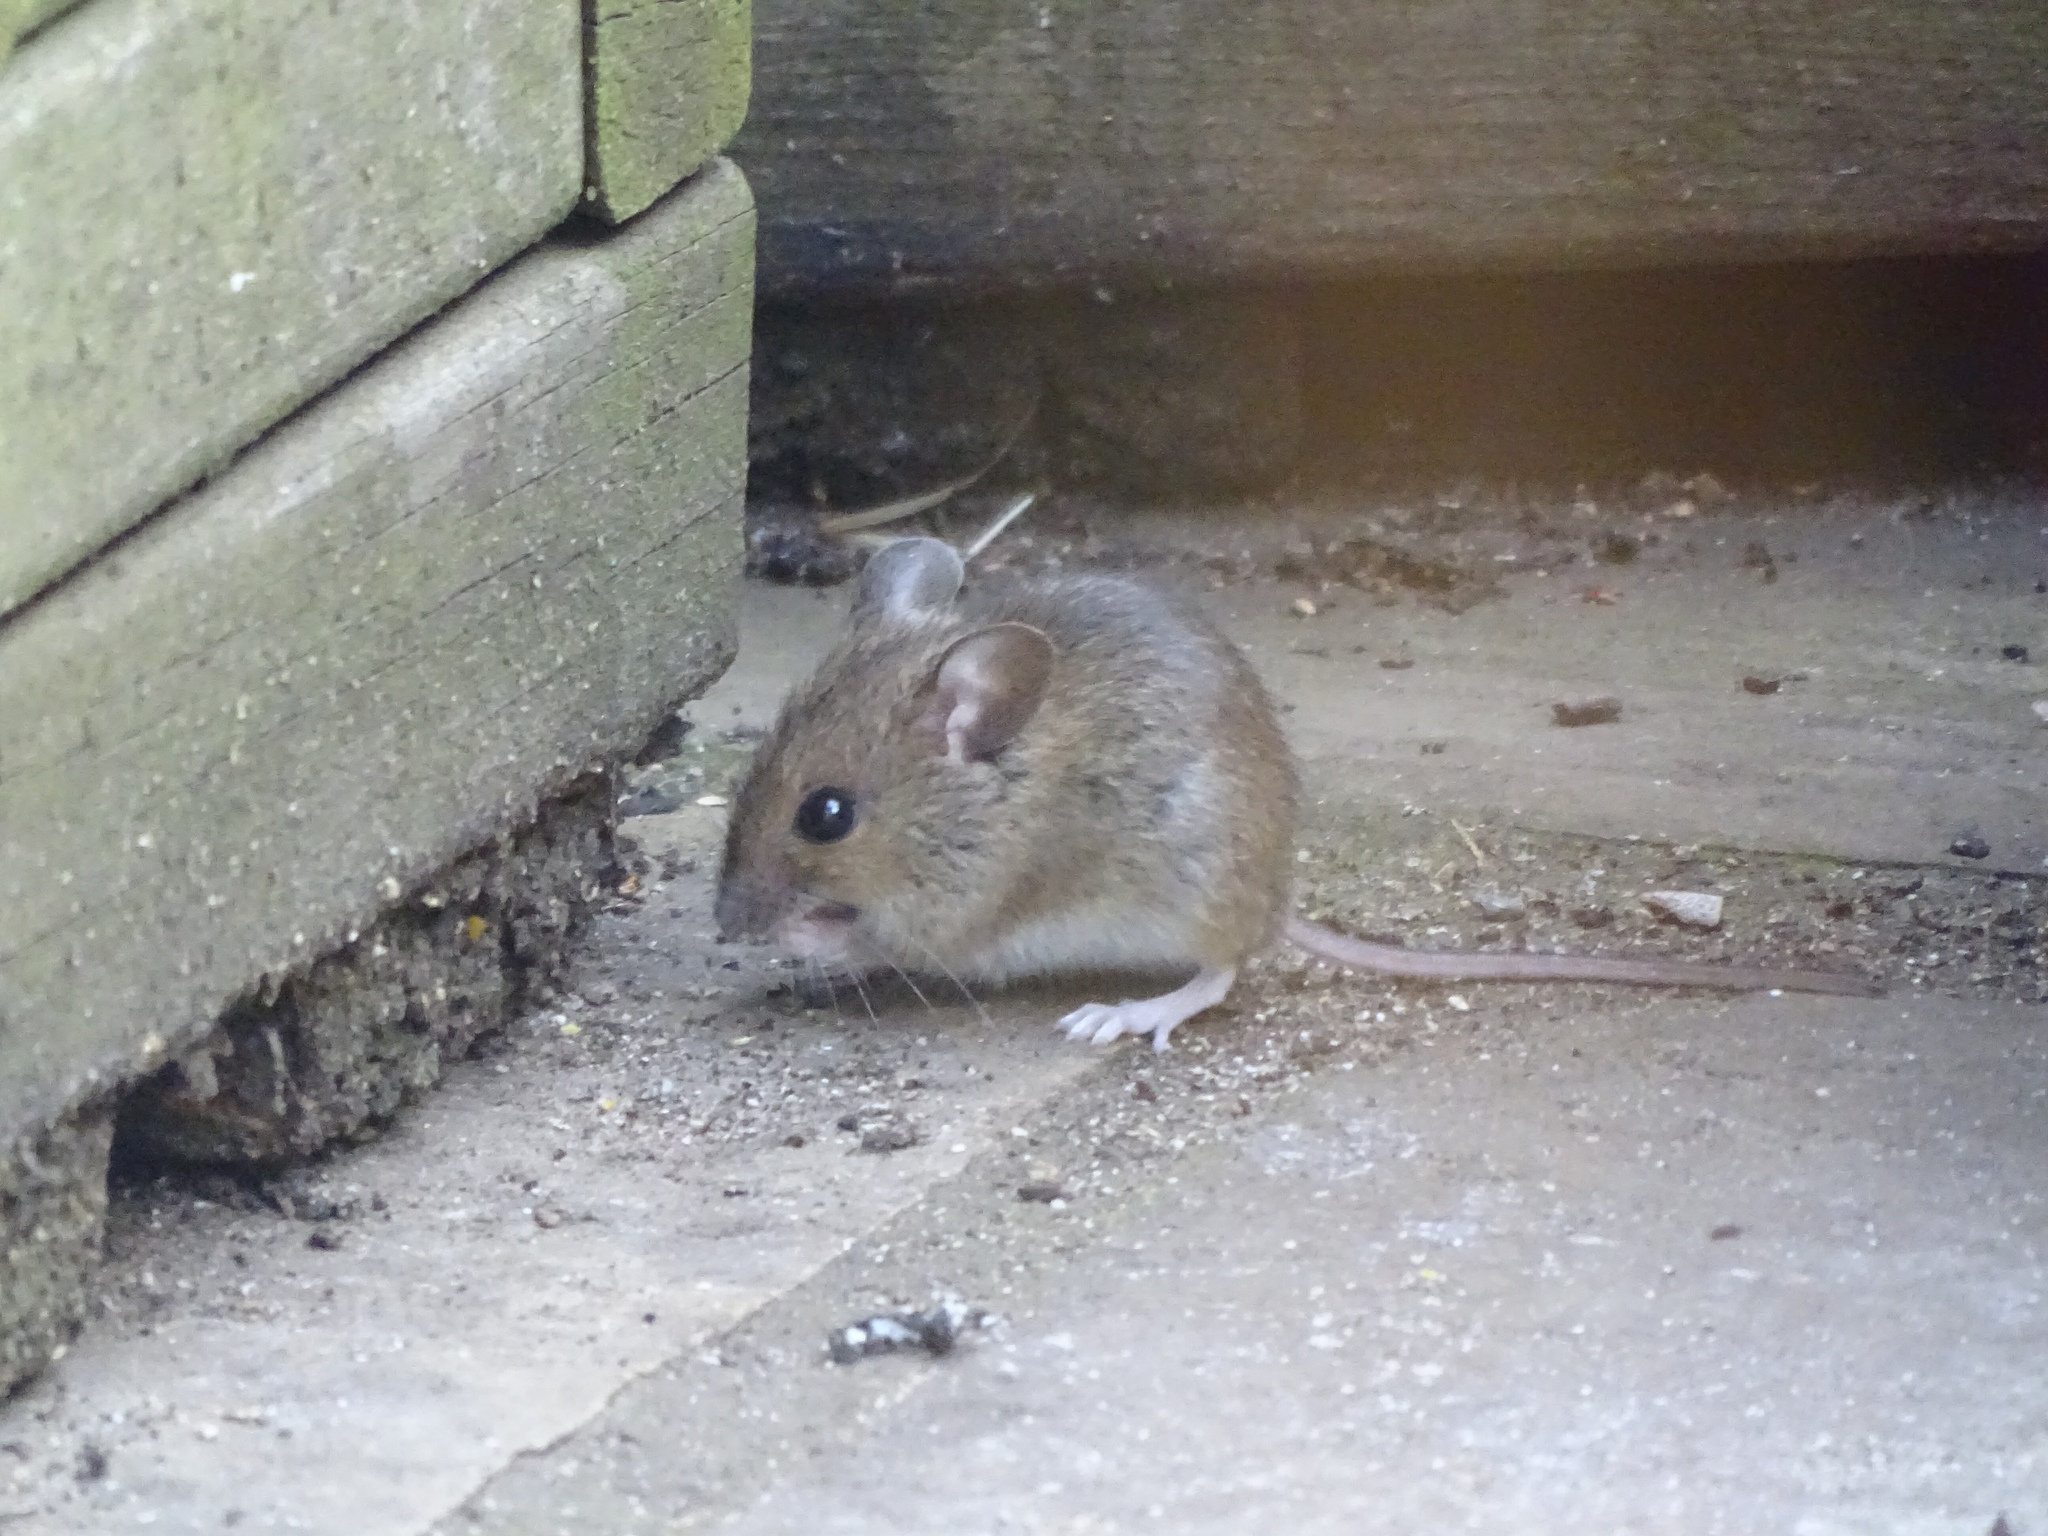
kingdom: Animalia
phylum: Chordata
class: Mammalia
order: Rodentia
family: Muridae
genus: Apodemus
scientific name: Apodemus sylvaticus
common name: Wood mouse
